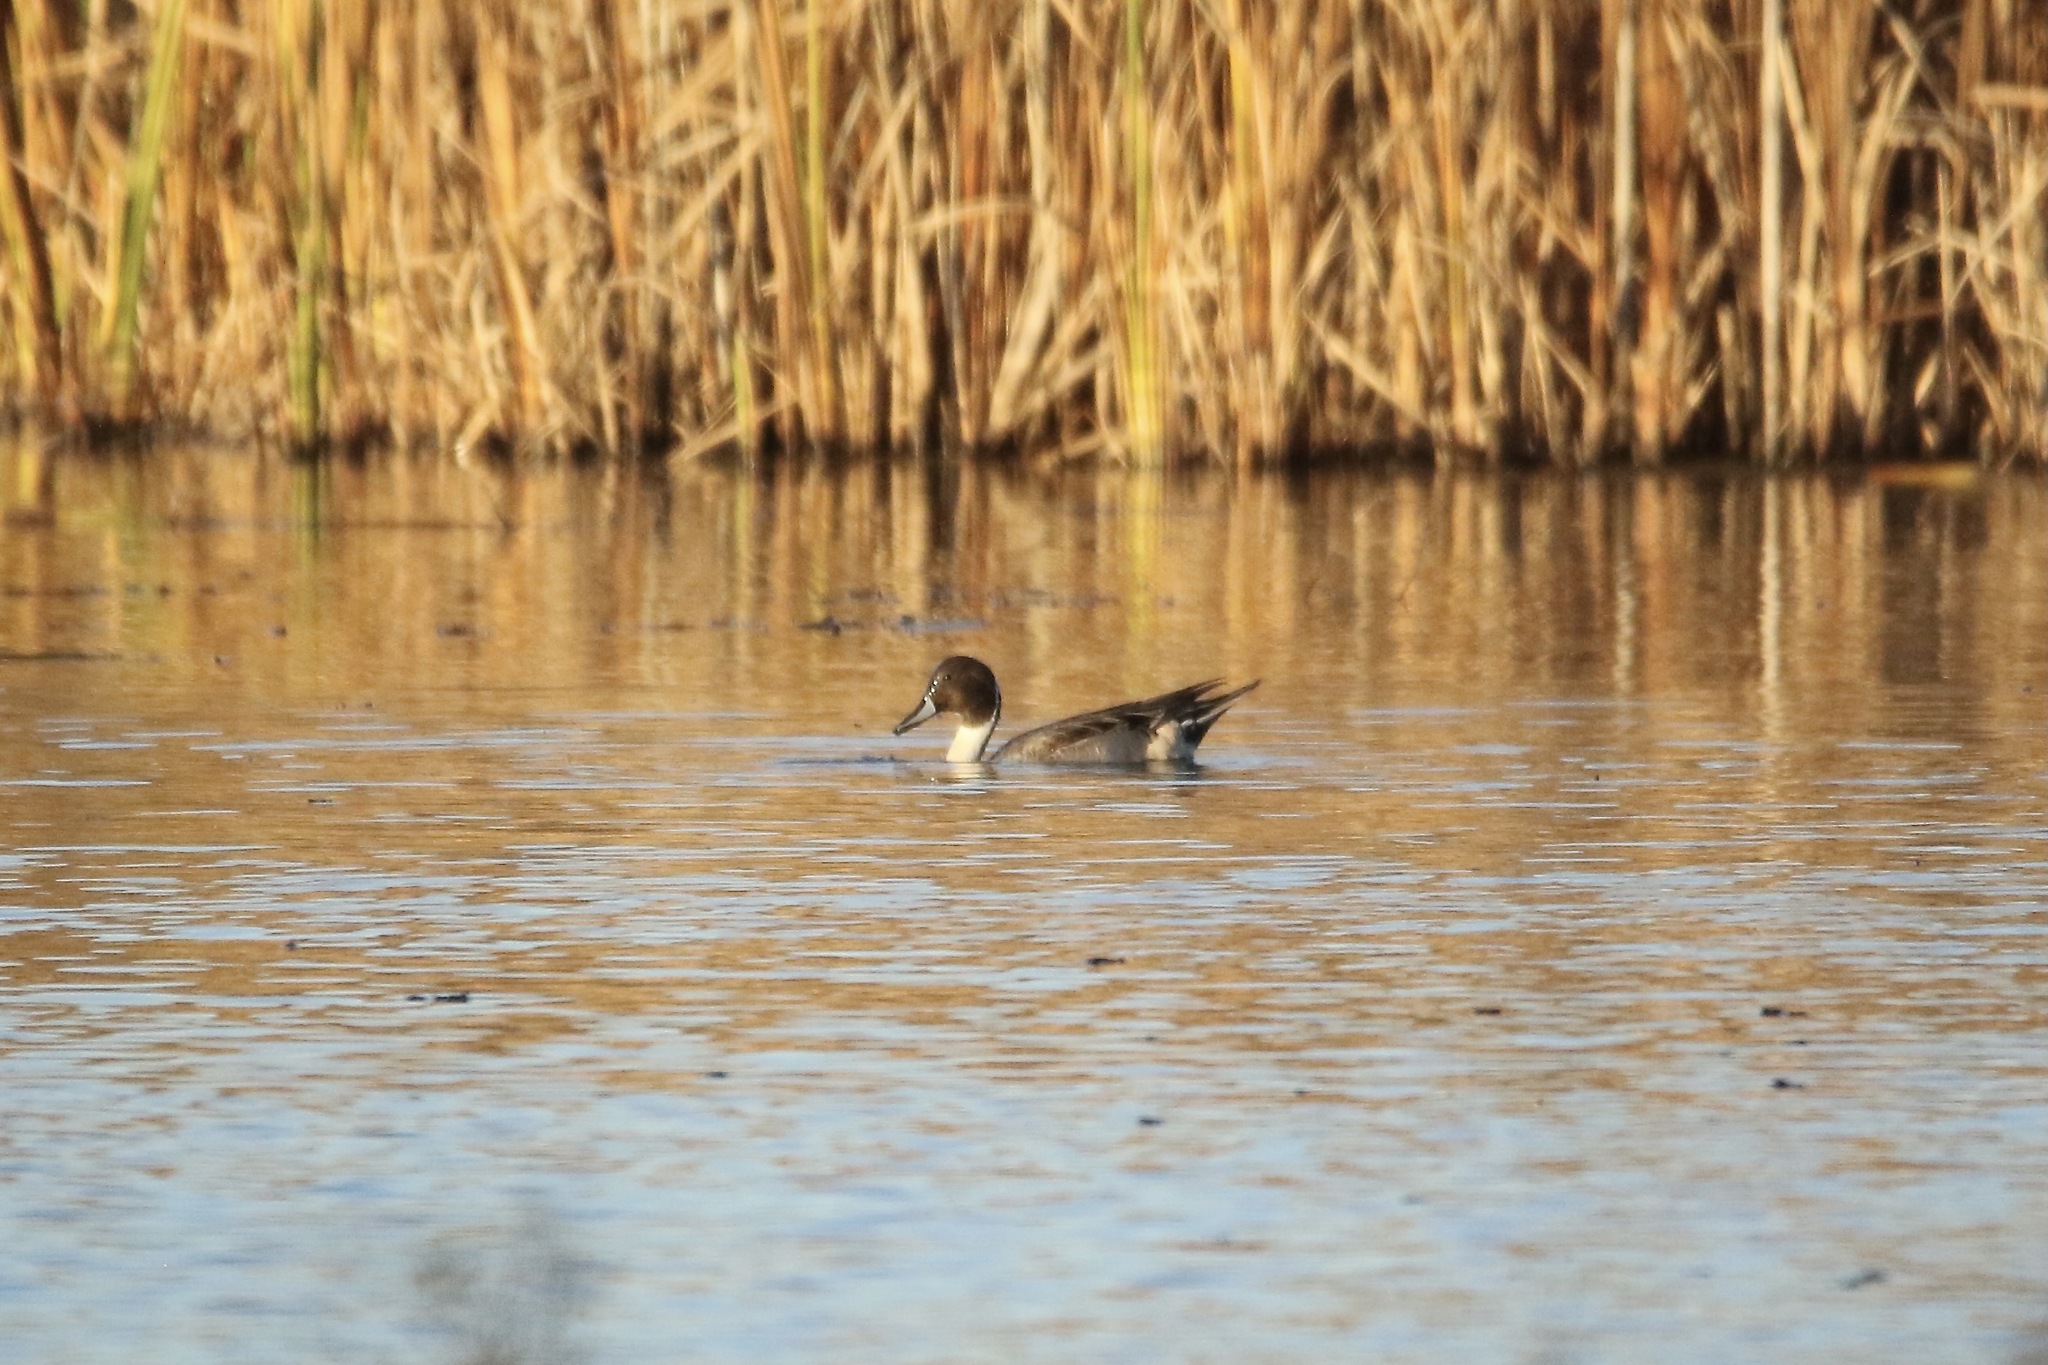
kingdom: Animalia
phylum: Chordata
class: Aves
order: Anseriformes
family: Anatidae
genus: Anas
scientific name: Anas acuta
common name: Northern pintail
